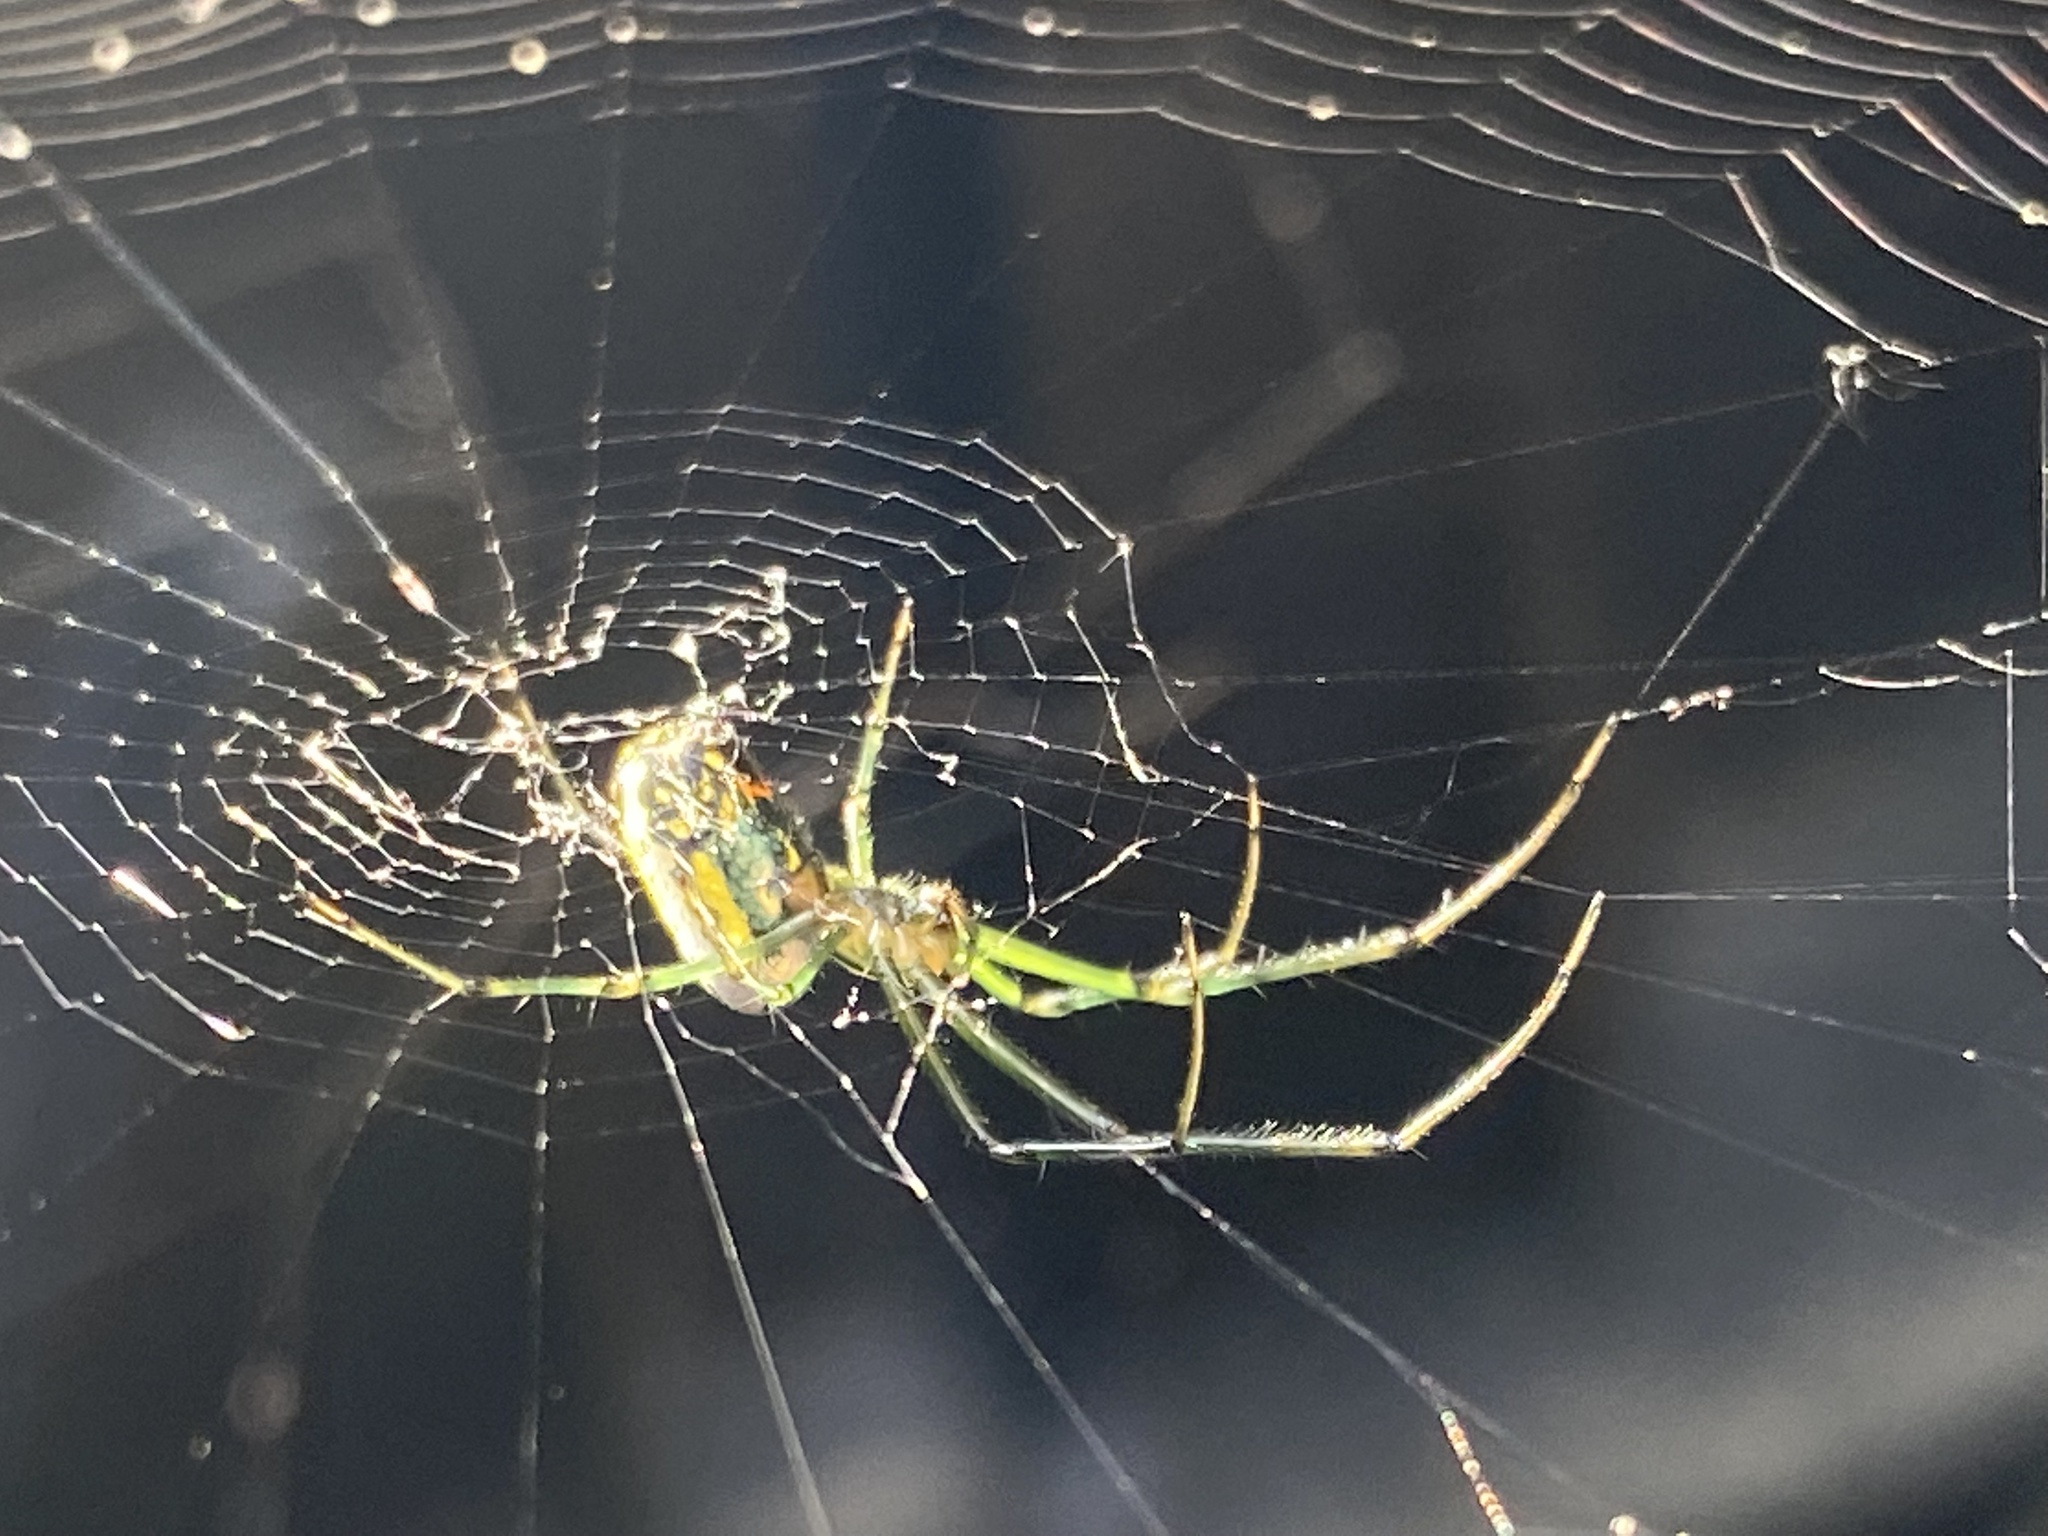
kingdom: Animalia
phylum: Arthropoda
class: Arachnida
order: Araneae
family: Tetragnathidae
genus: Leucauge
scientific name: Leucauge venusta
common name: Longjawed orb weavers
